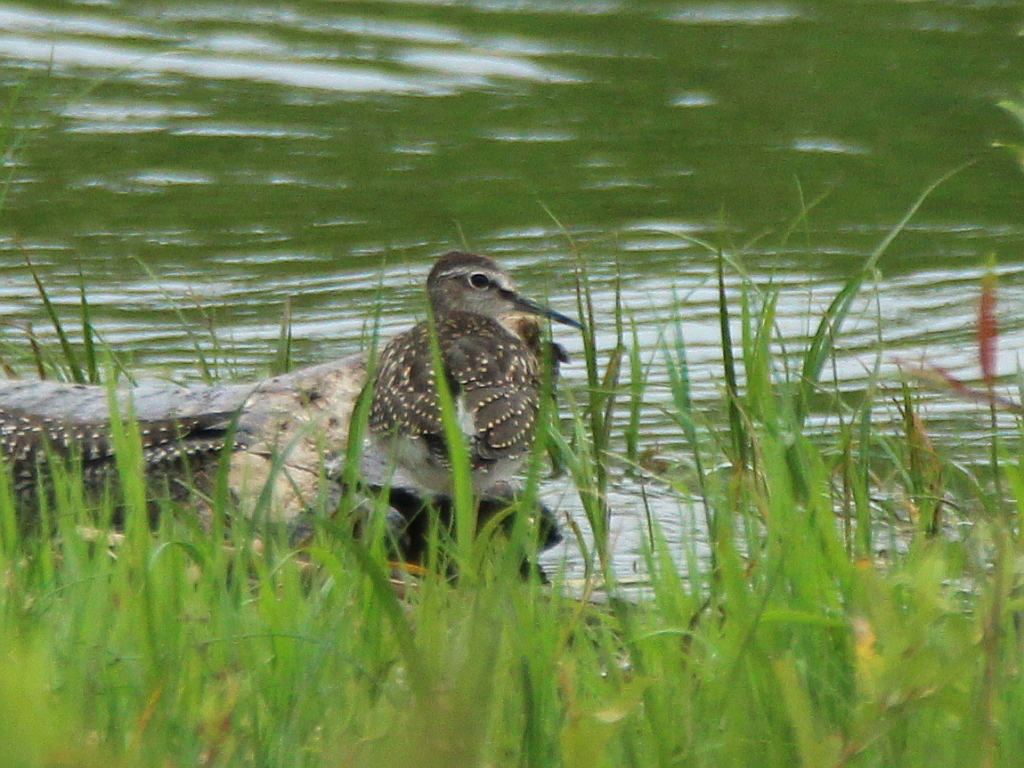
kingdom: Animalia
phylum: Chordata
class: Aves
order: Charadriiformes
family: Scolopacidae
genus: Tringa
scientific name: Tringa glareola
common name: Wood sandpiper
